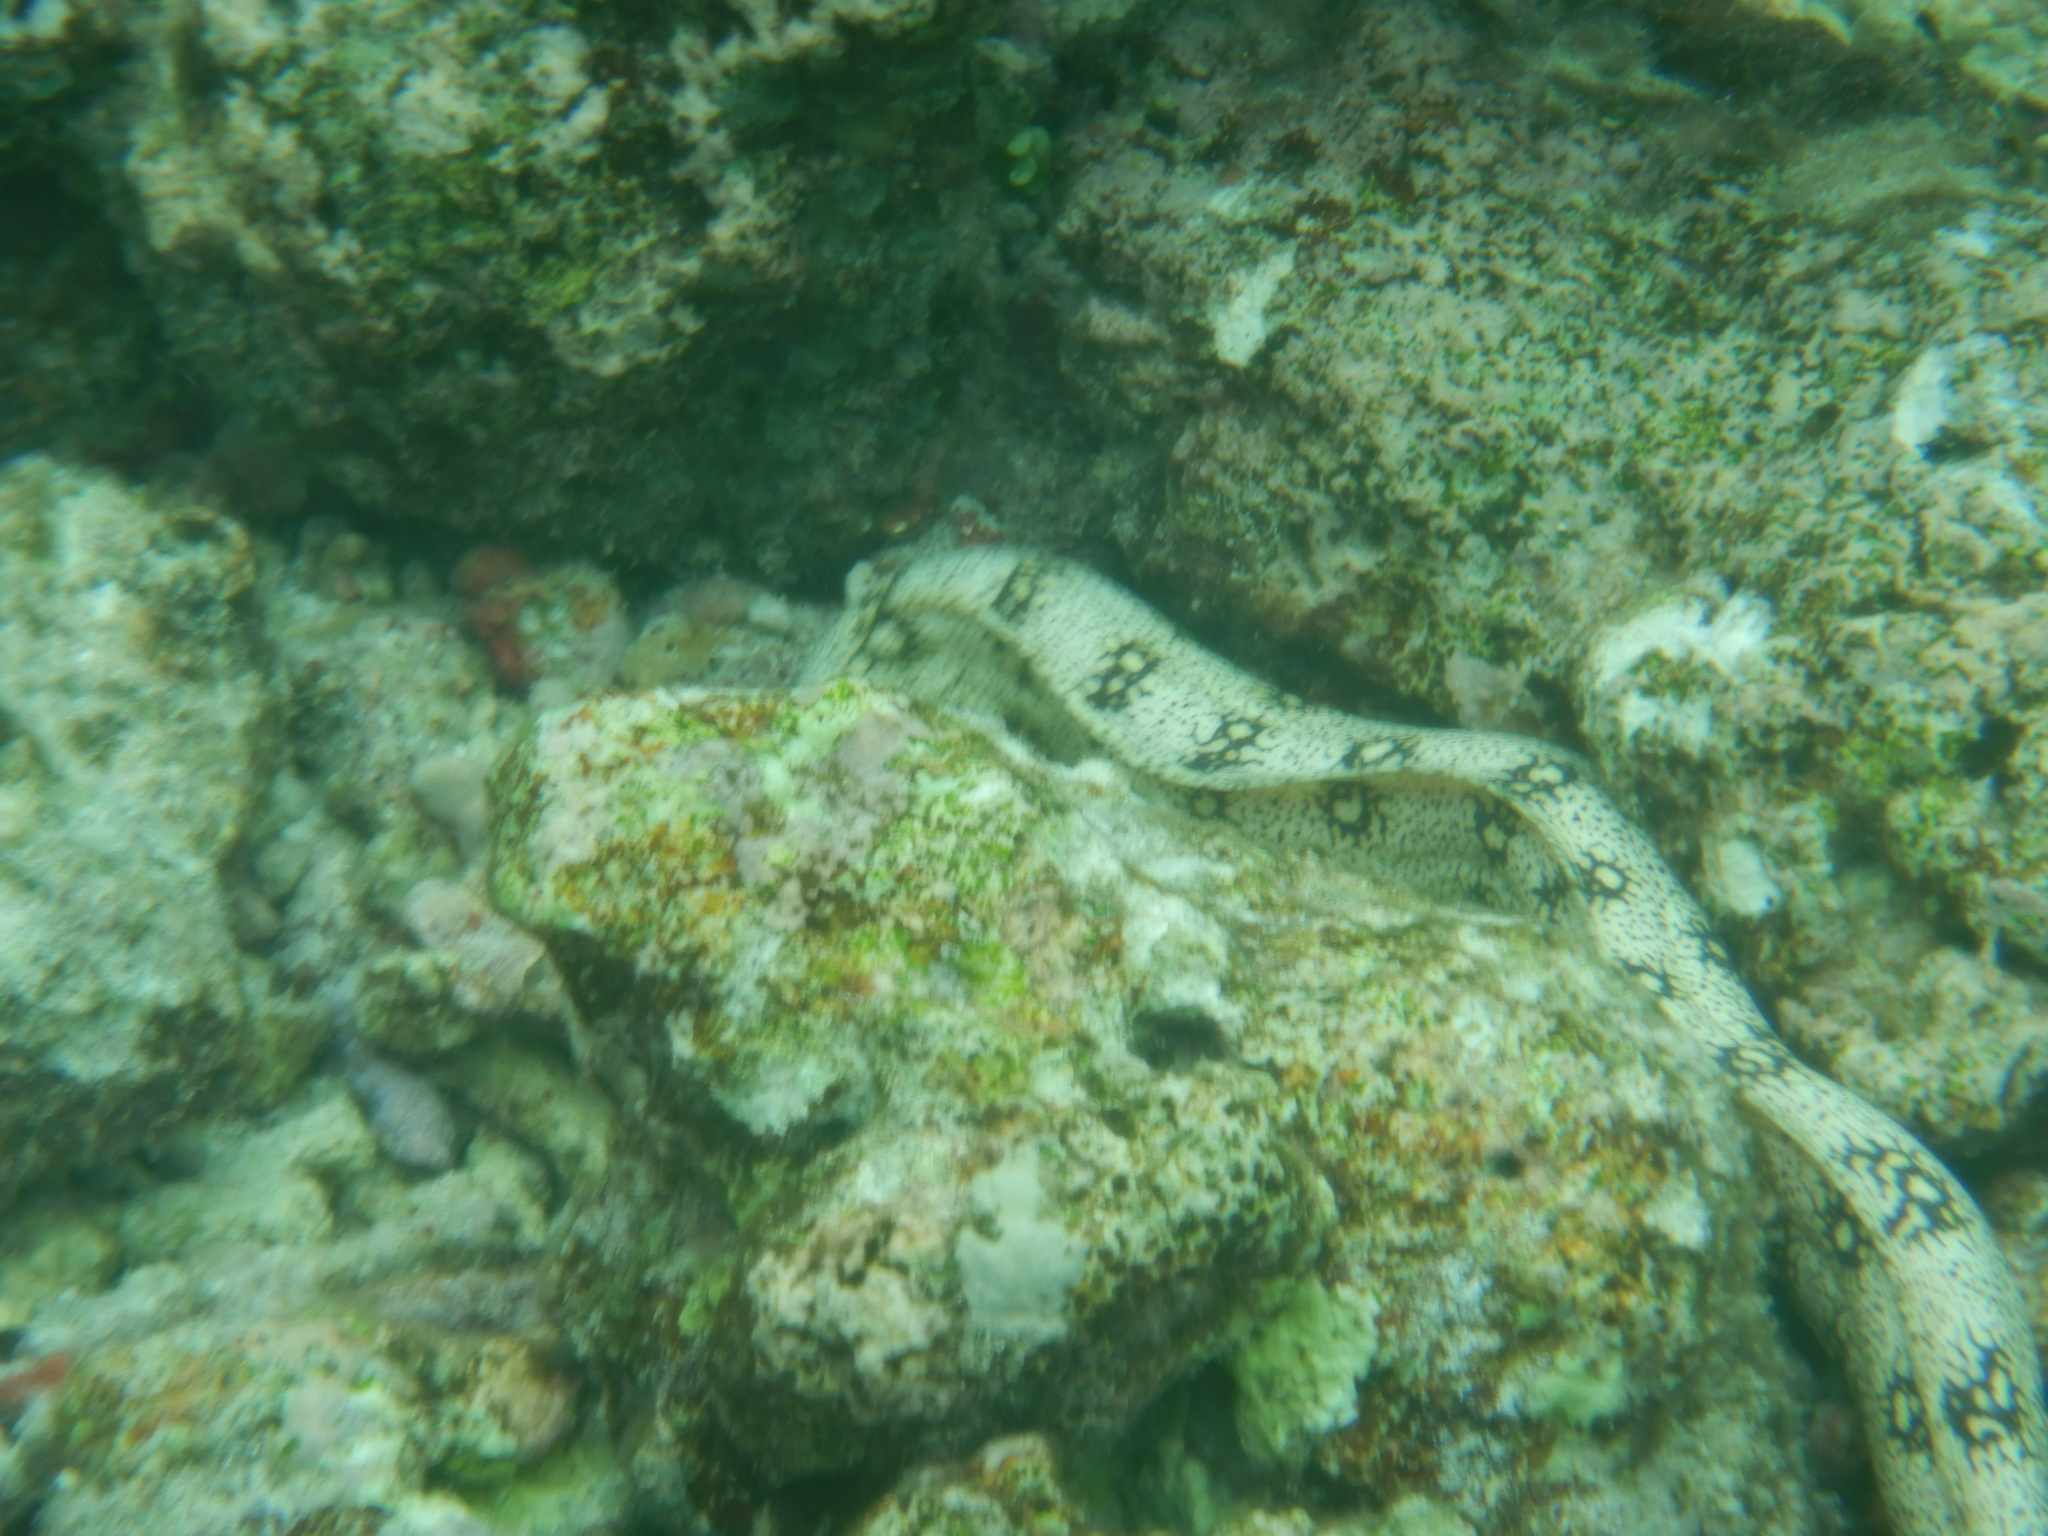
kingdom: Animalia
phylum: Chordata
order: Anguilliformes
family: Muraenidae
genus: Echidna
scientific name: Echidna nebulosa
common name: Snowflake moray
